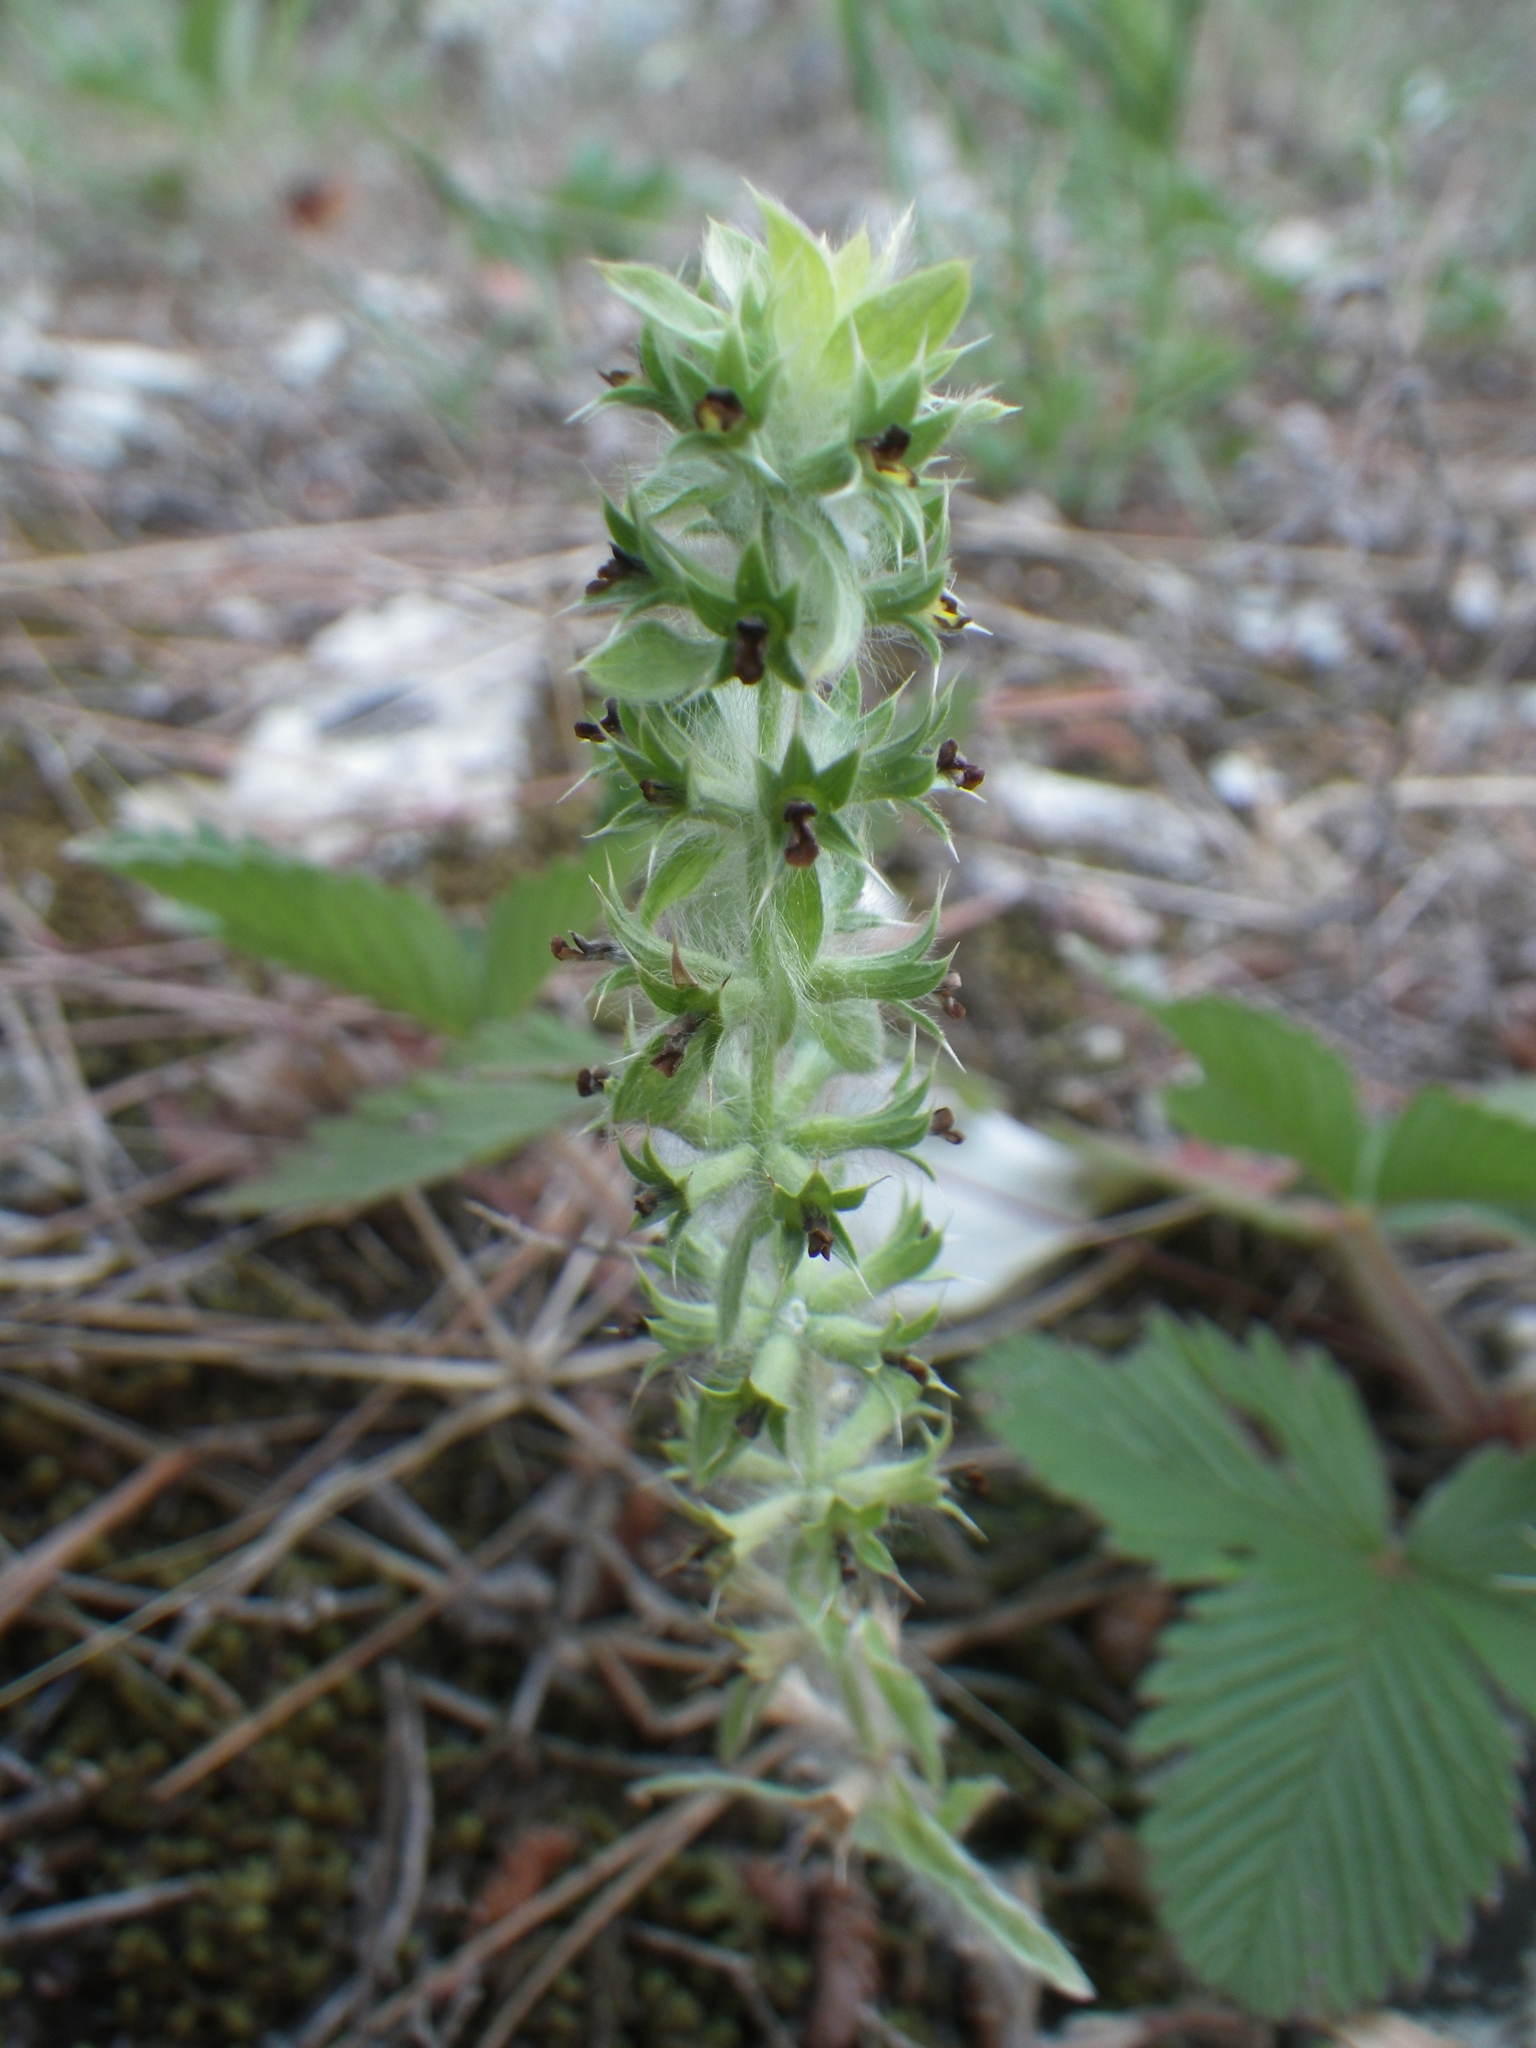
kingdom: Plantae
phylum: Tracheophyta
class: Magnoliopsida
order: Lamiales
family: Lamiaceae
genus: Sideritis
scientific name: Sideritis montana
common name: Mountain ironwort
